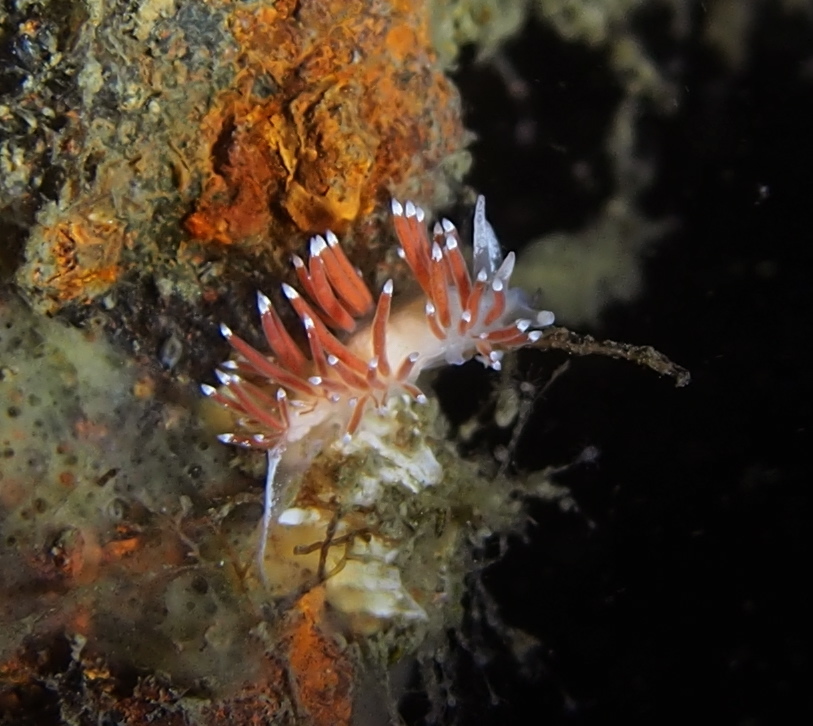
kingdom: Animalia
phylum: Mollusca
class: Gastropoda
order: Nudibranchia
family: Coryphellidae
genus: Coryphella
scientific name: Coryphella gracilis
